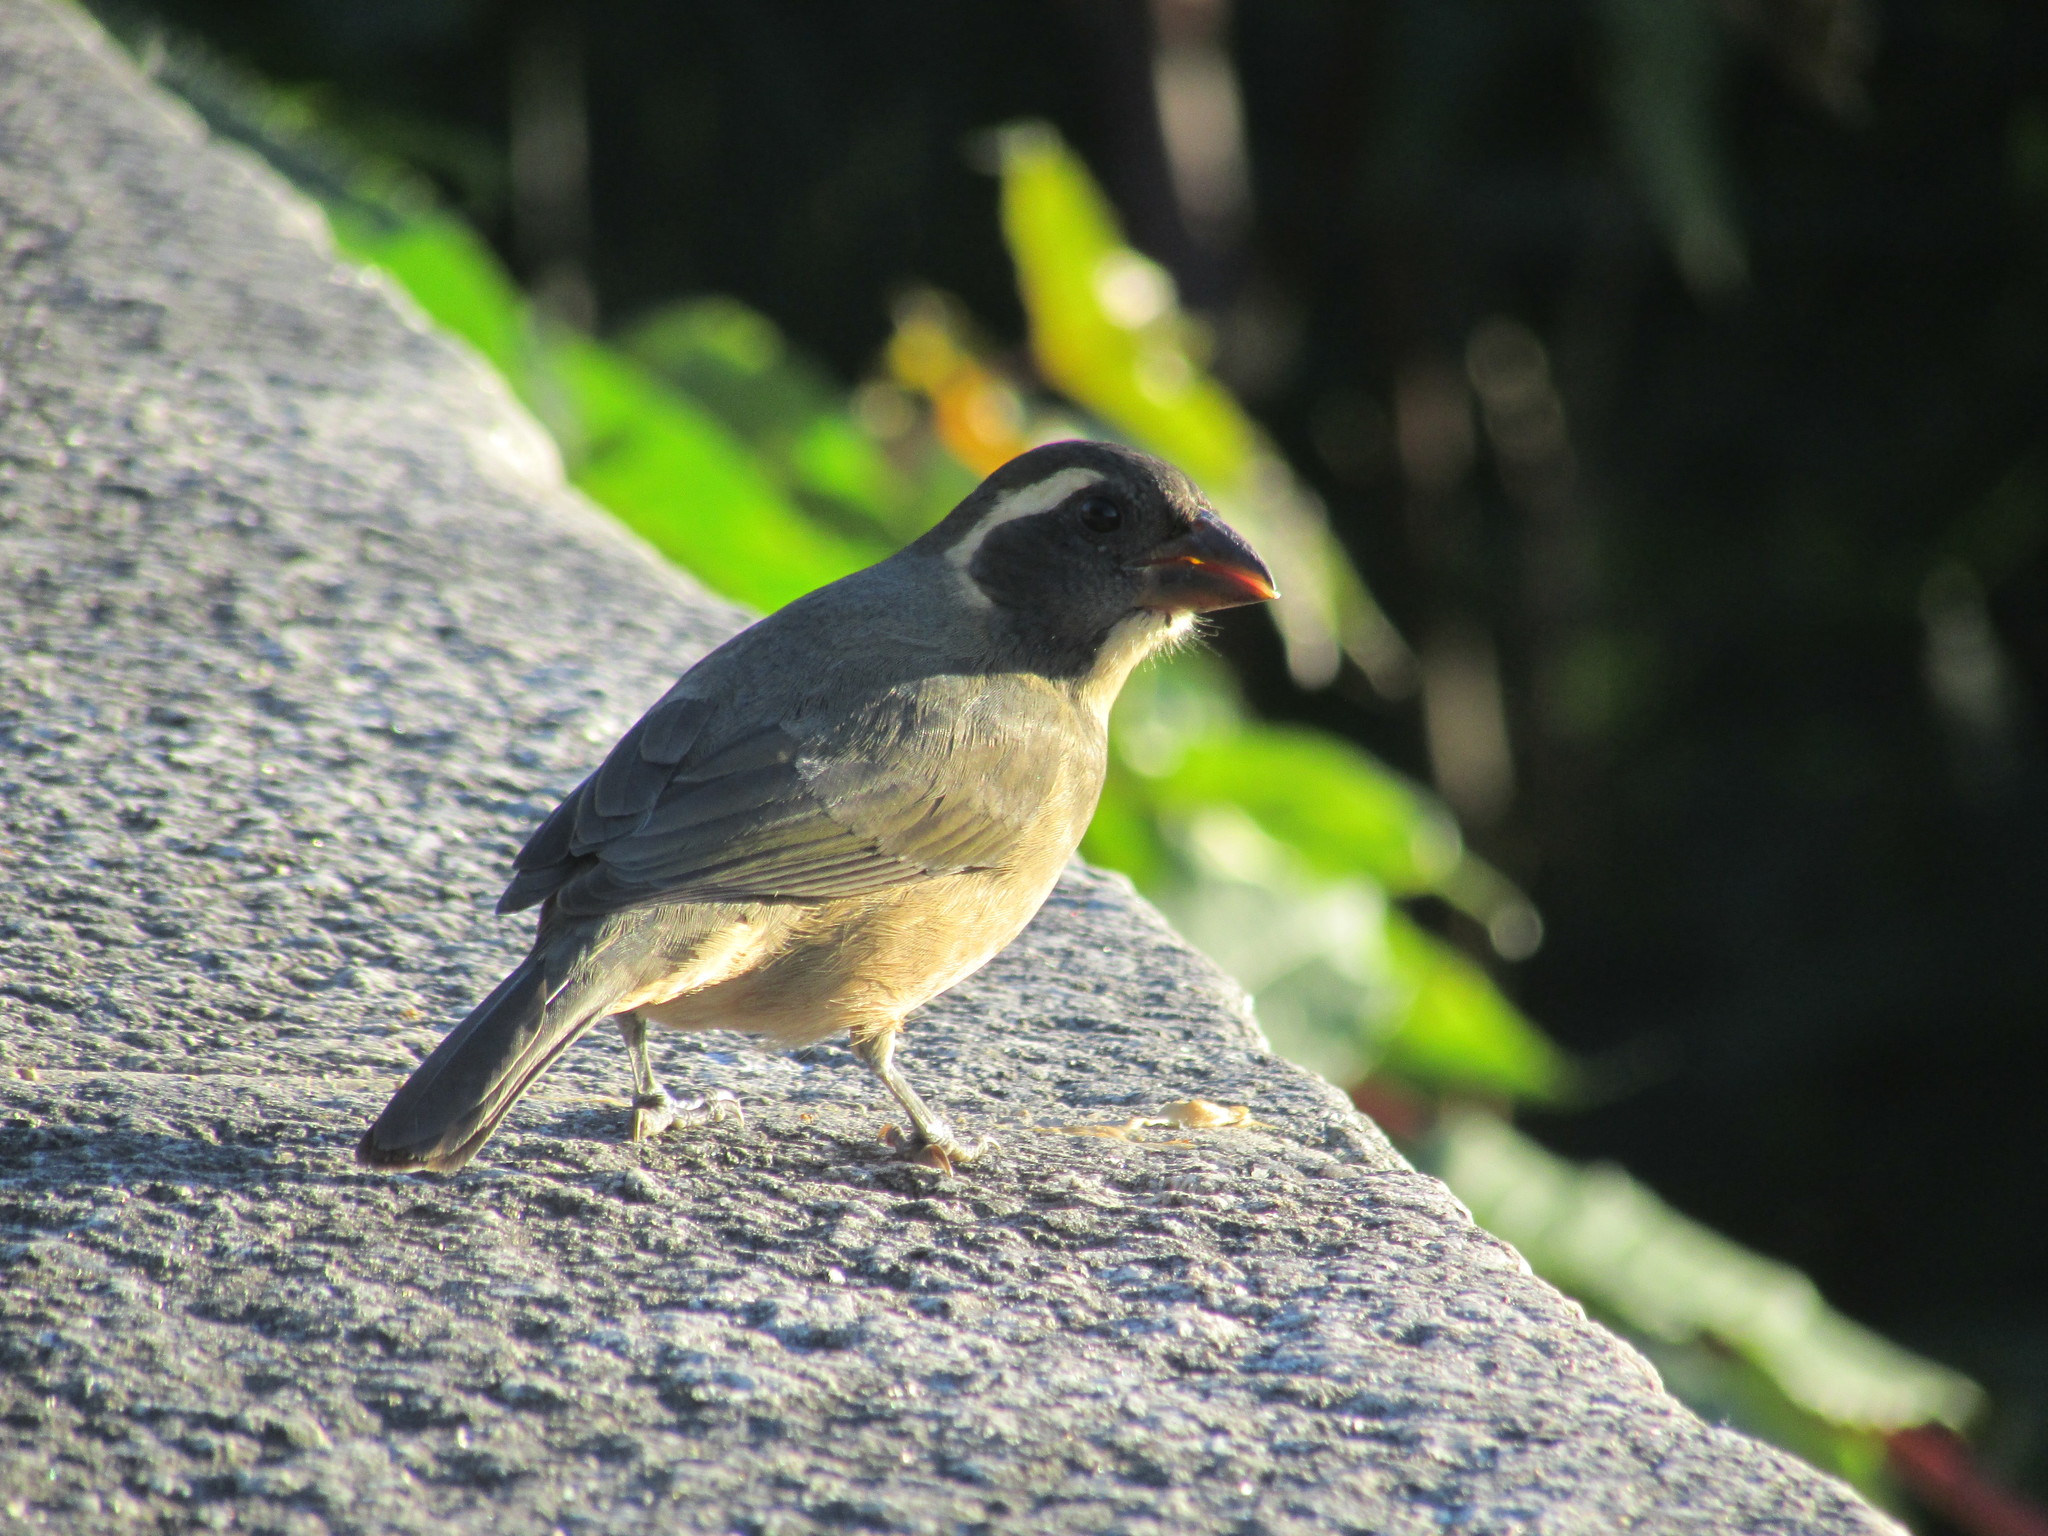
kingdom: Animalia
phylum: Chordata
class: Aves
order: Passeriformes
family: Thraupidae
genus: Saltator
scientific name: Saltator aurantiirostris
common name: Golden-billed saltator
